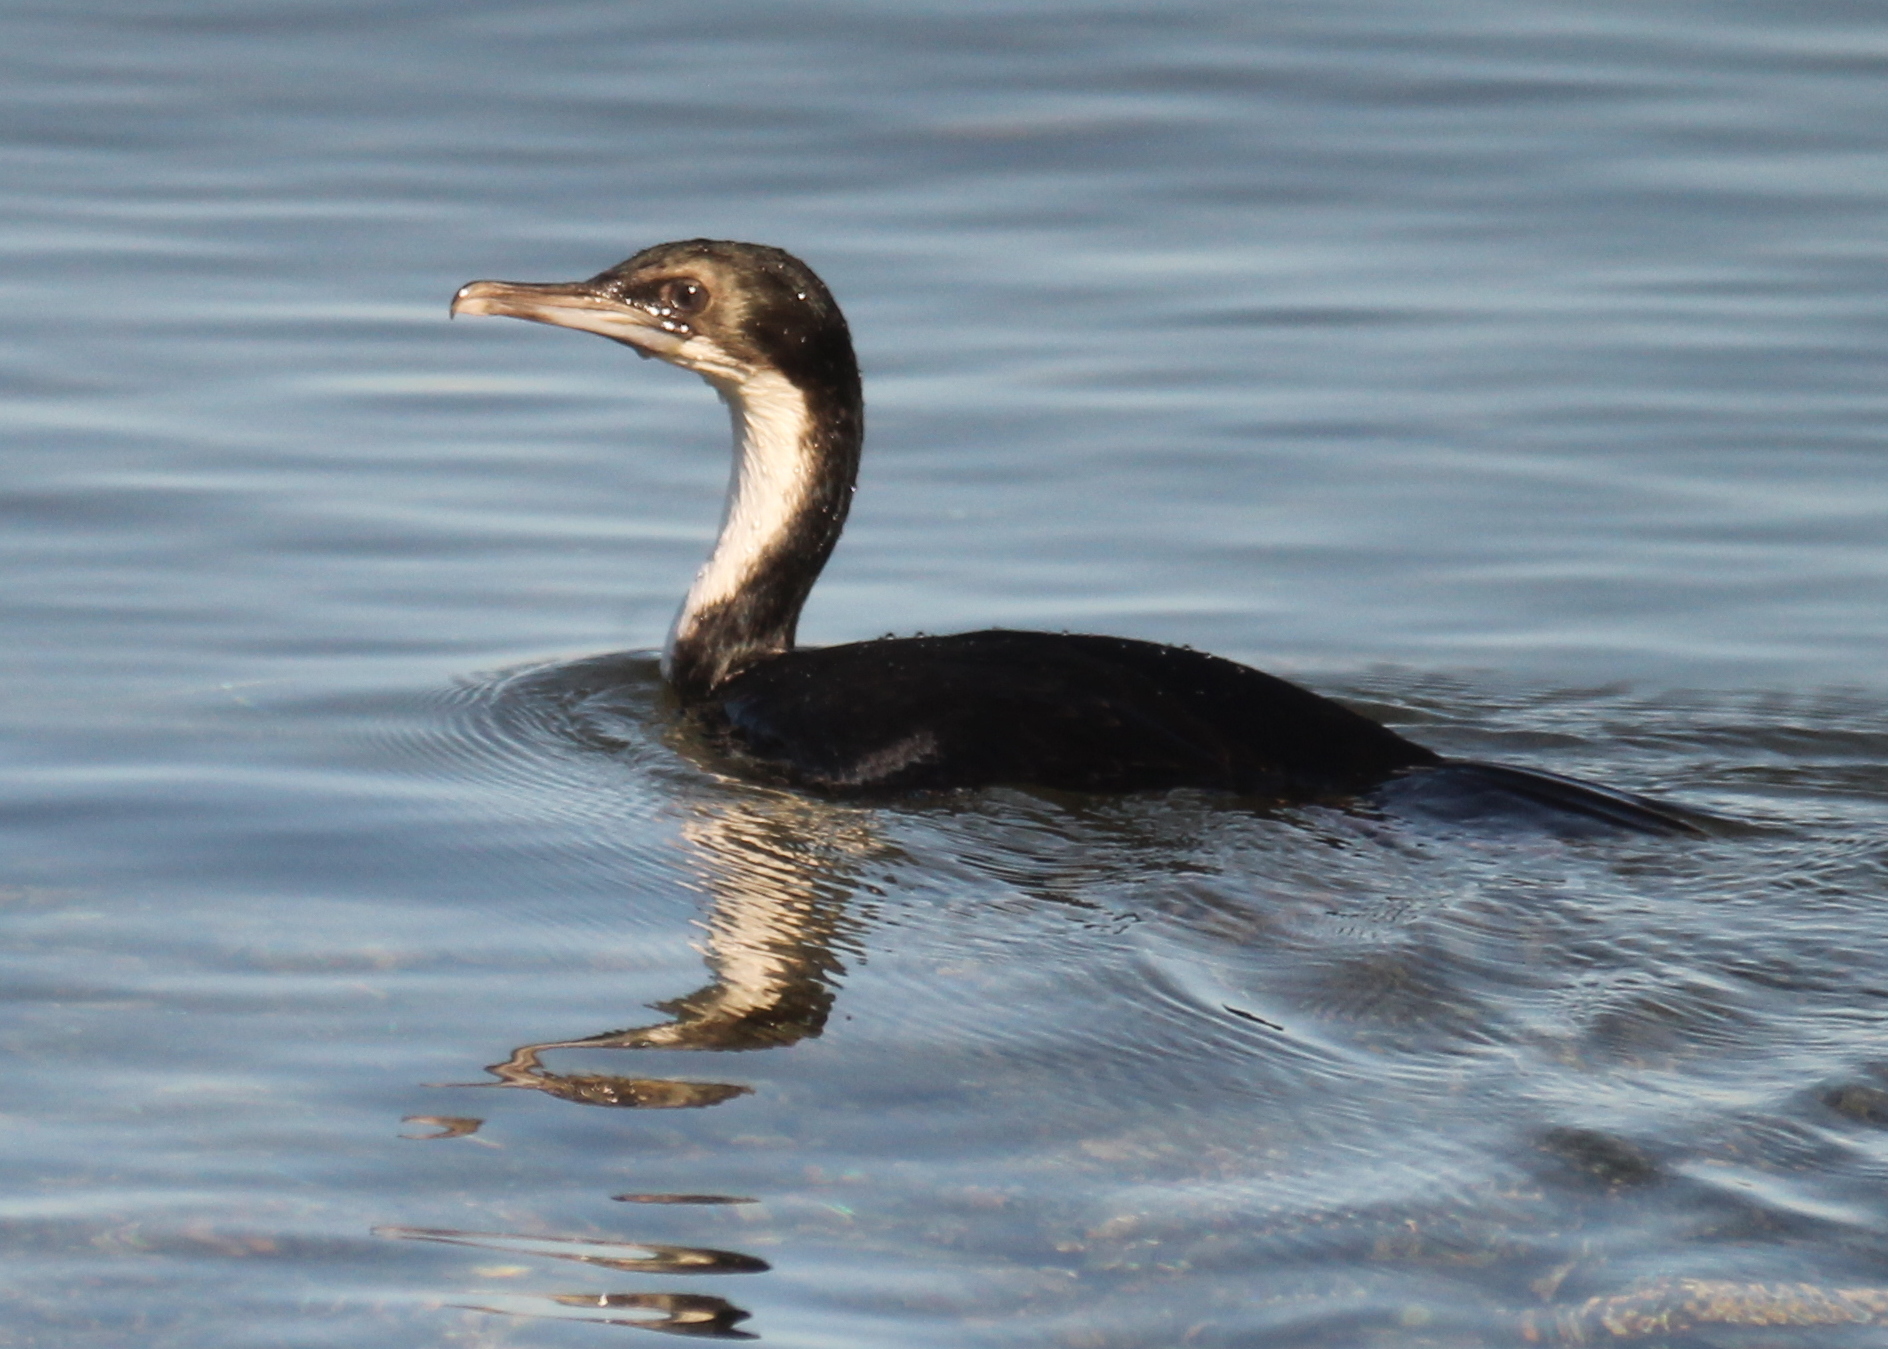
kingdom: Animalia
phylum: Chordata
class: Aves
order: Suliformes
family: Phalacrocoracidae
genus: Leucocarbo
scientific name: Leucocarbo atriceps
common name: Imperial shag
